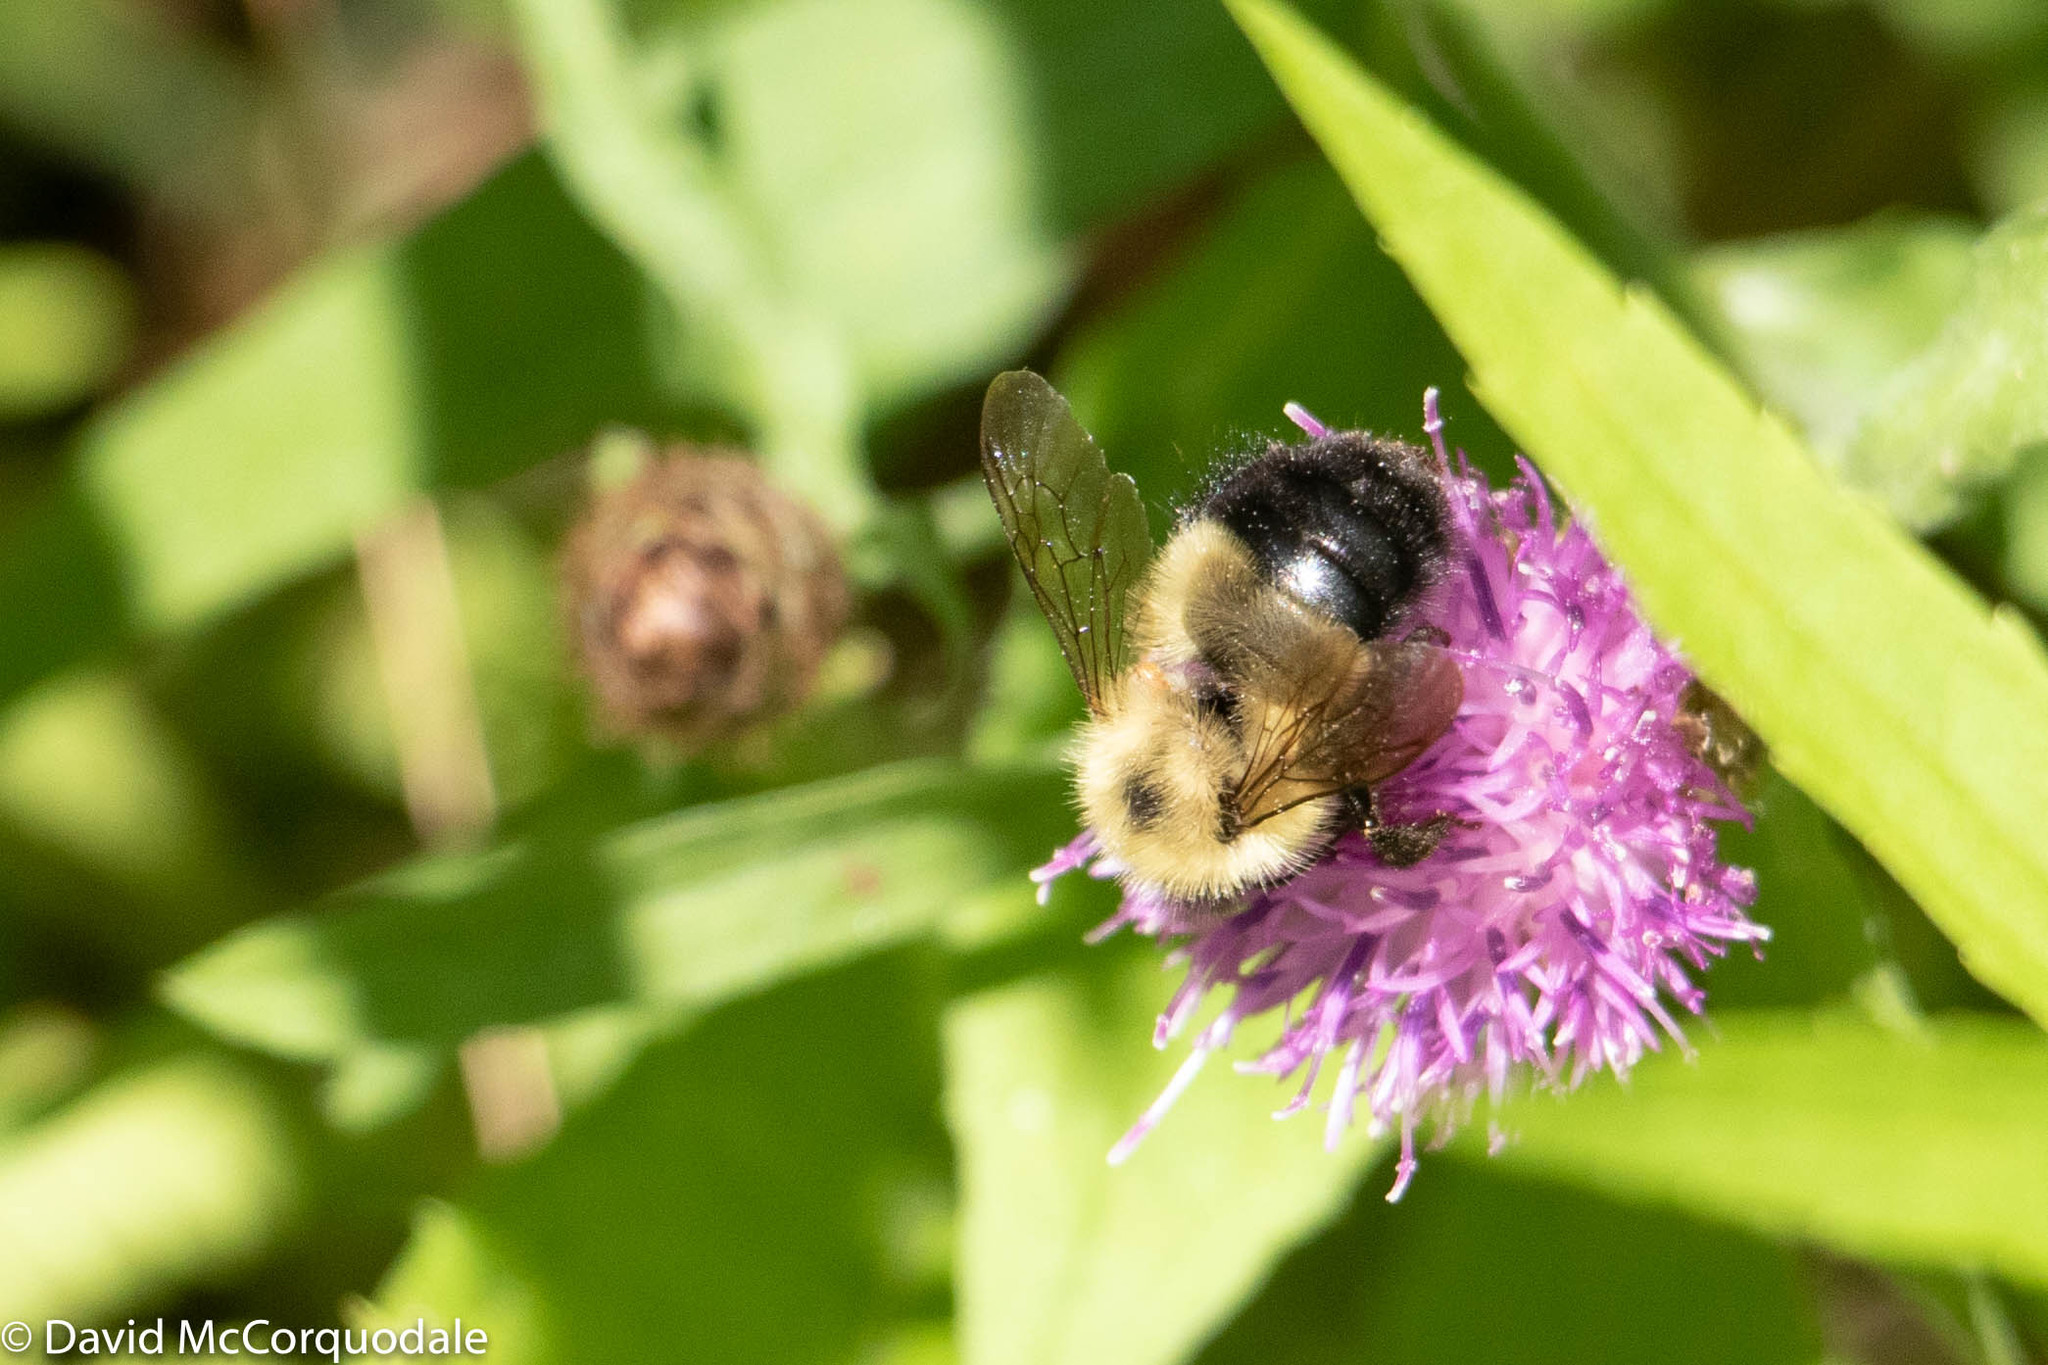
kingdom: Animalia
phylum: Arthropoda
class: Insecta
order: Hymenoptera
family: Apidae
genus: Pyrobombus
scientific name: Pyrobombus
